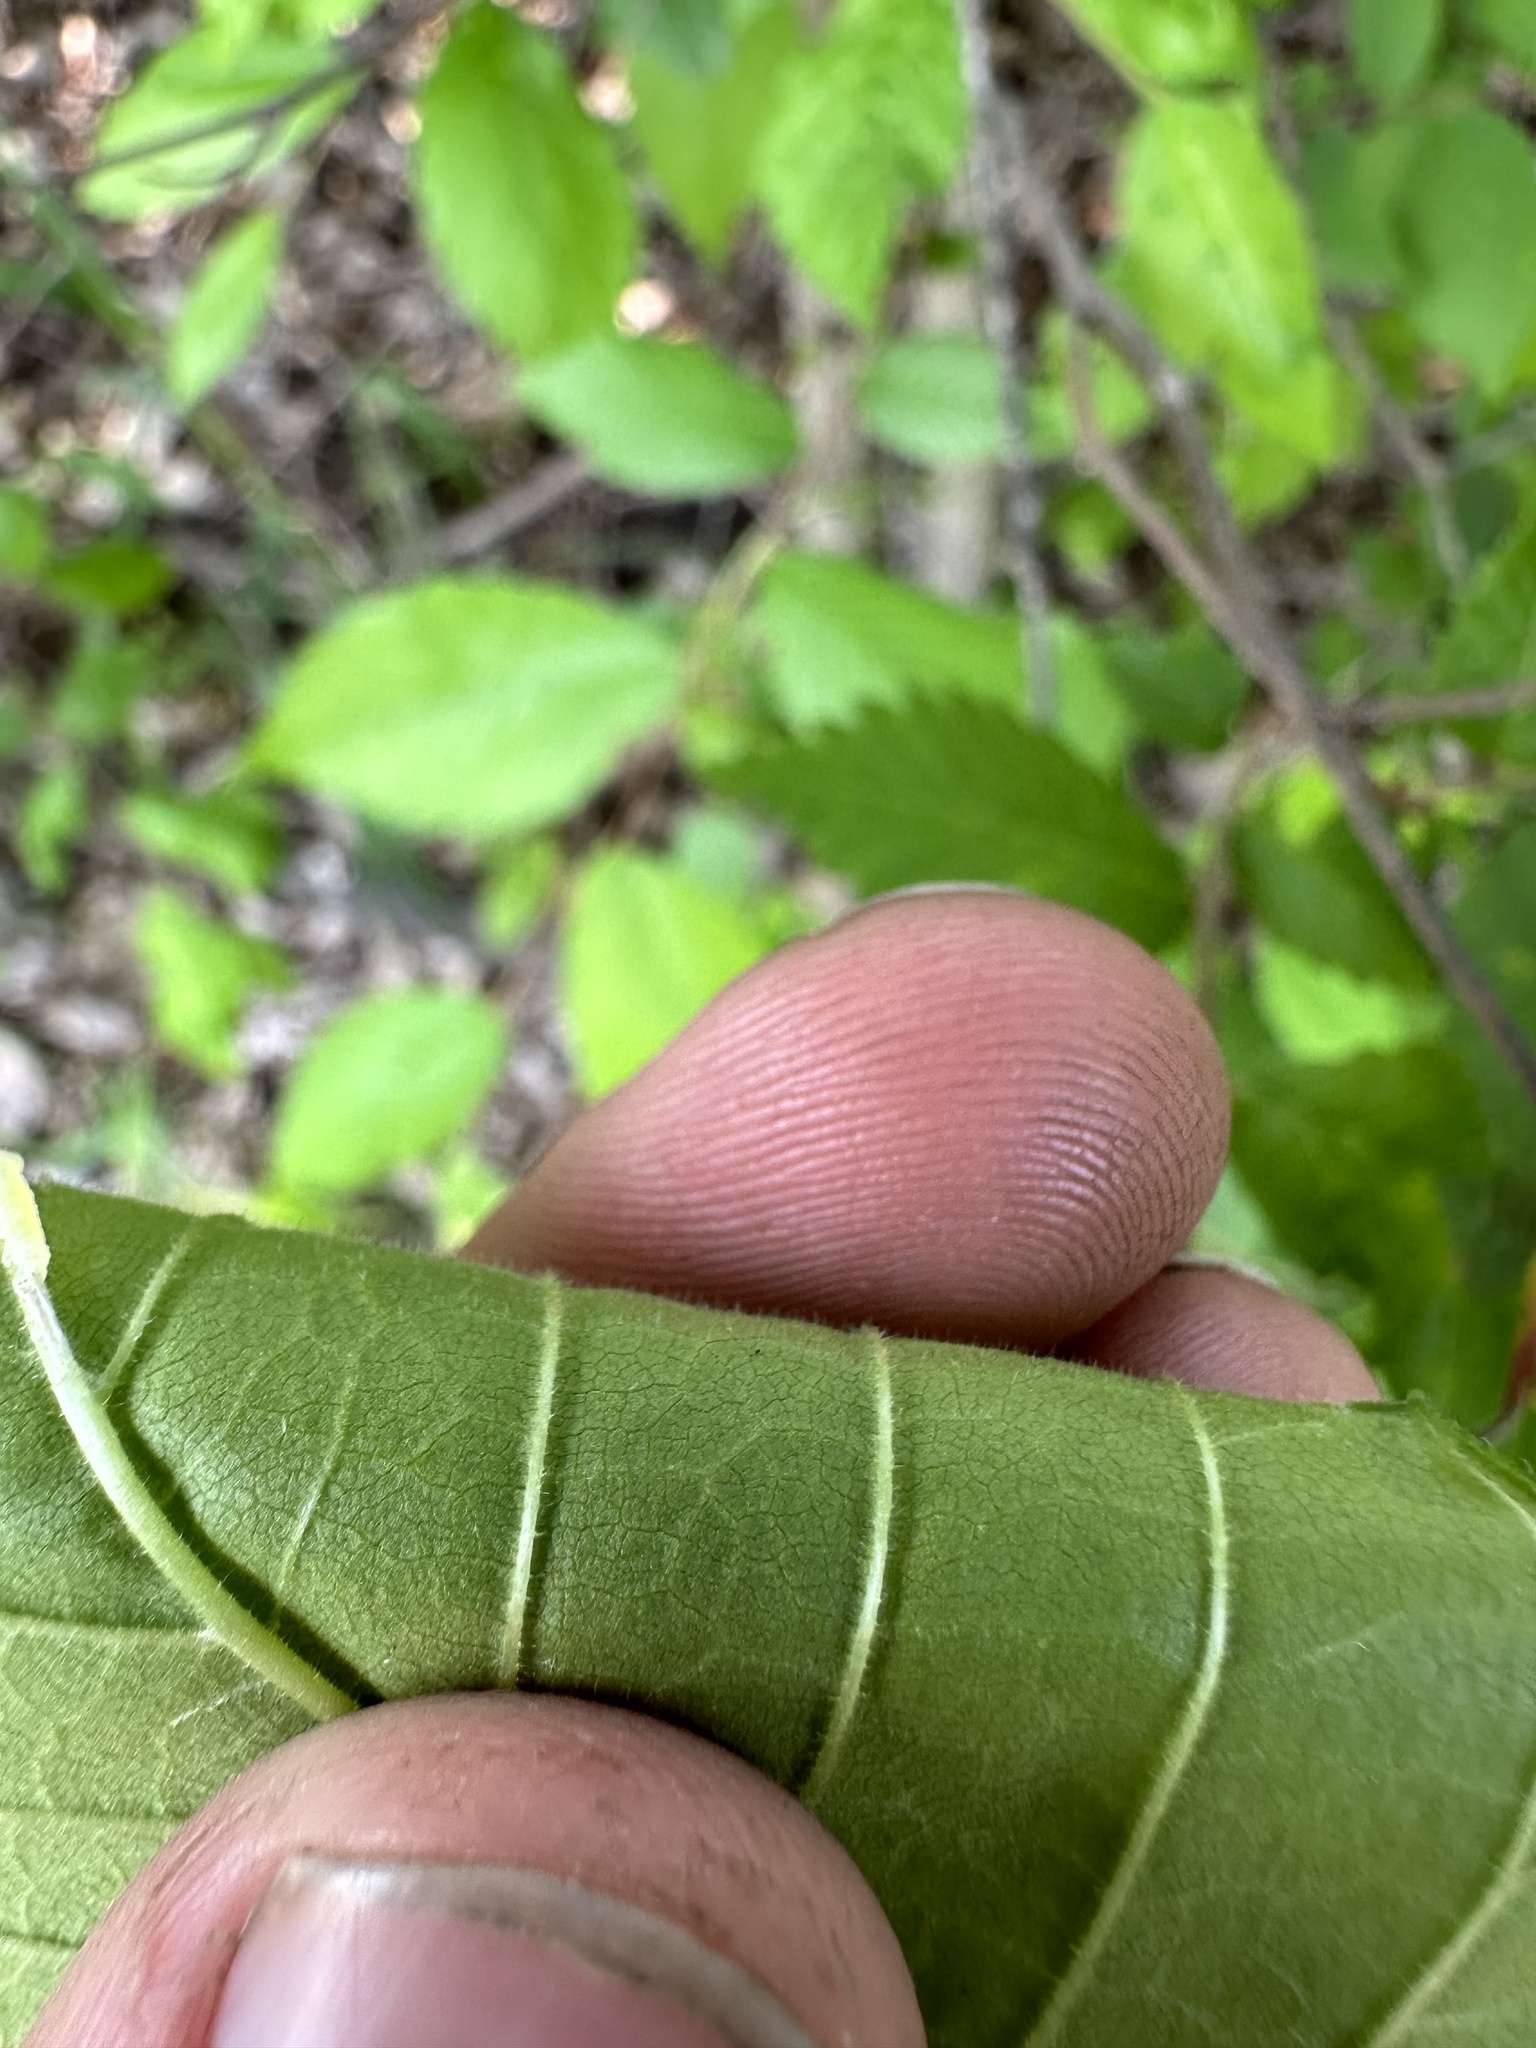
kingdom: Plantae
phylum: Tracheophyta
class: Liliopsida
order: Asparagales
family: Asparagaceae
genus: Maianthemum
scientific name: Maianthemum racemosum
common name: False spikenard
